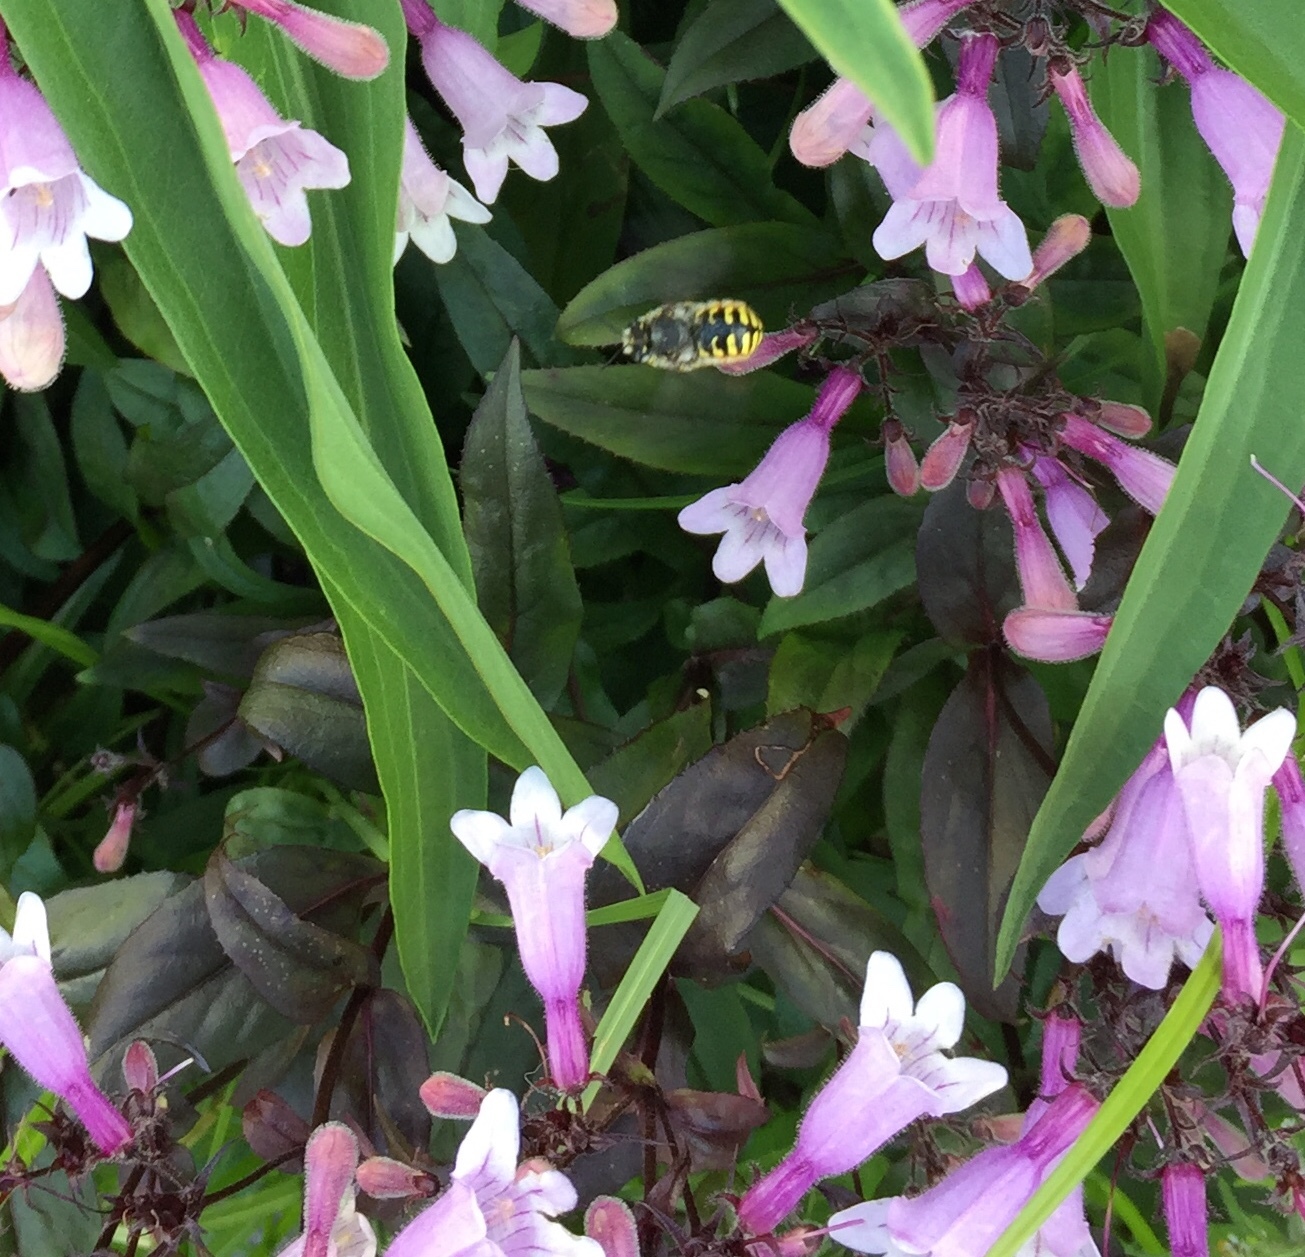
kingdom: Animalia
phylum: Arthropoda
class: Insecta
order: Hymenoptera
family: Megachilidae
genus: Anthidium
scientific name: Anthidium manicatum
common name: Wool carder bee
